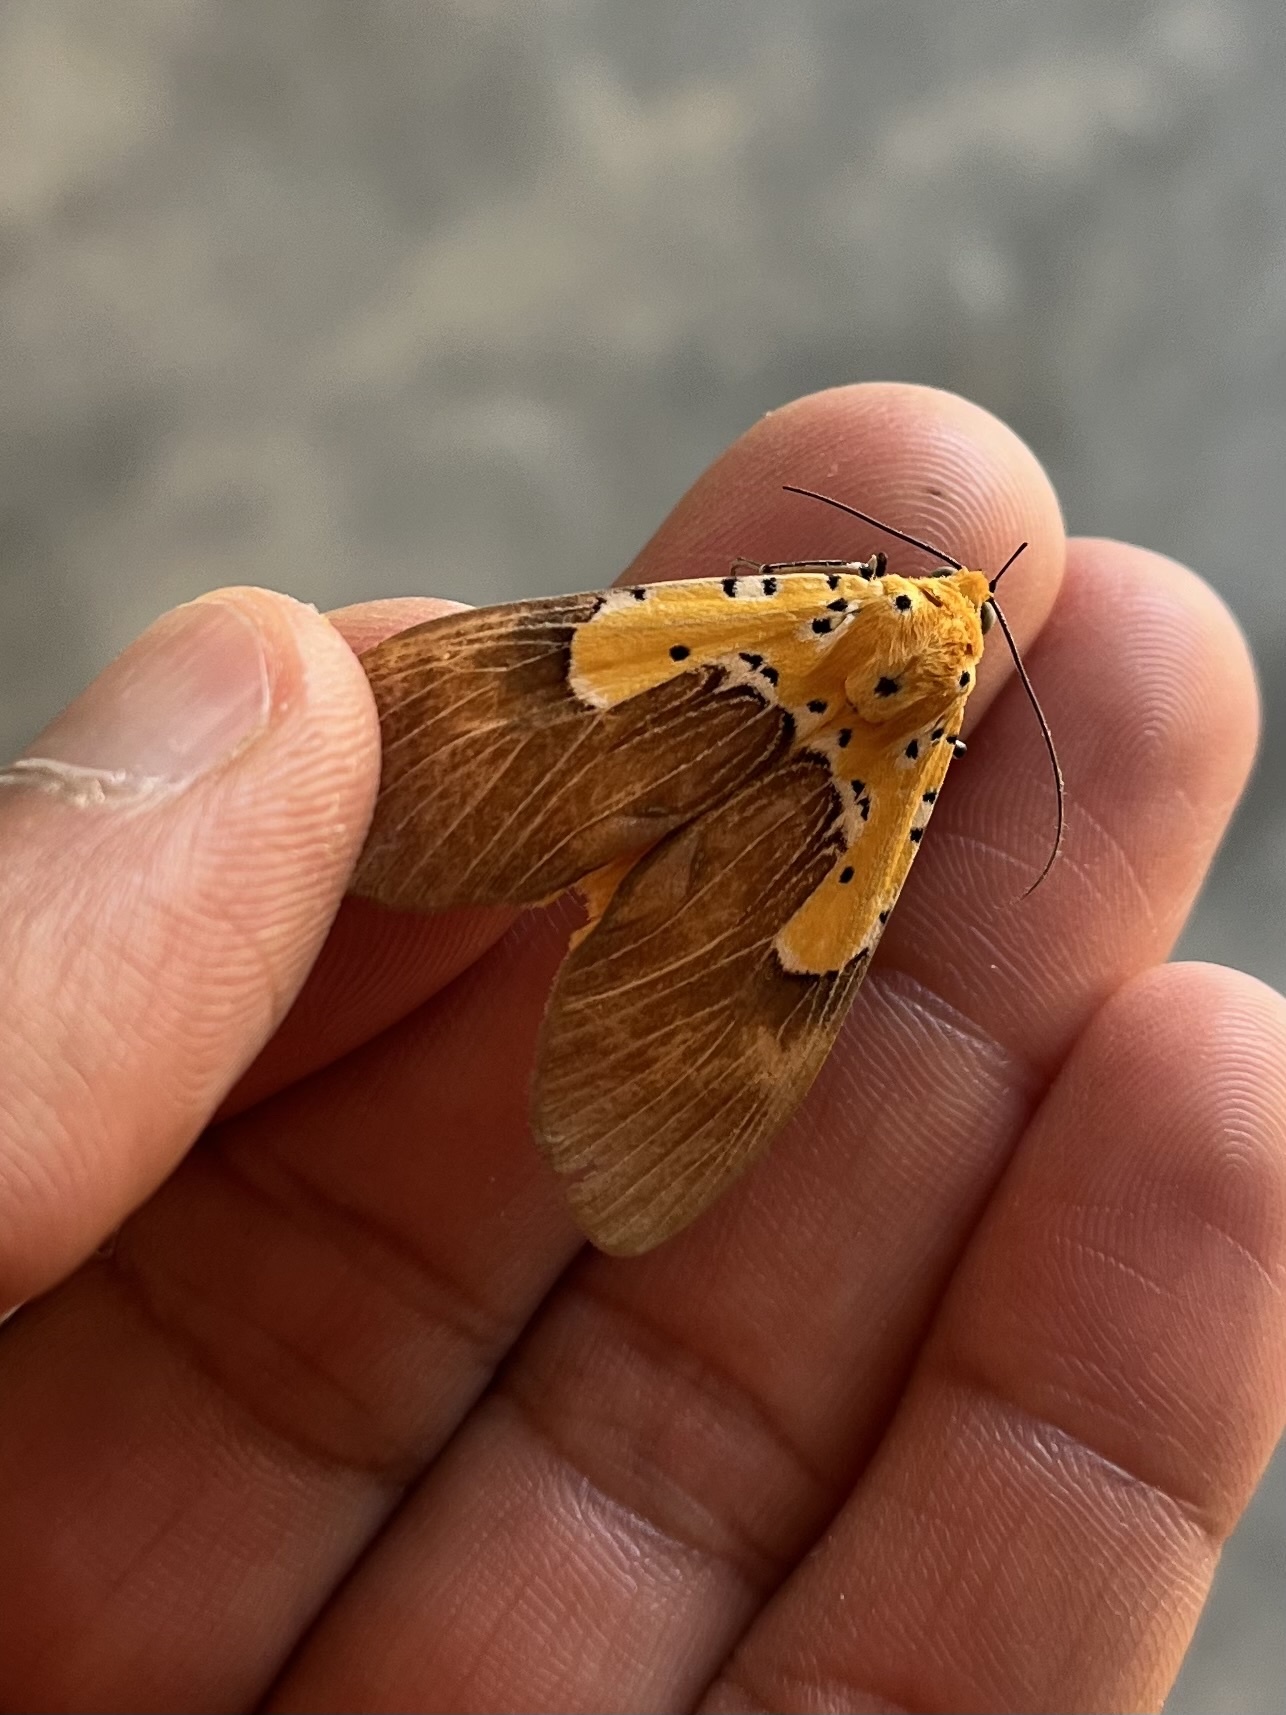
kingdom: Animalia
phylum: Arthropoda
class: Insecta
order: Lepidoptera
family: Erebidae
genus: Asota
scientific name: Asota speciosa
